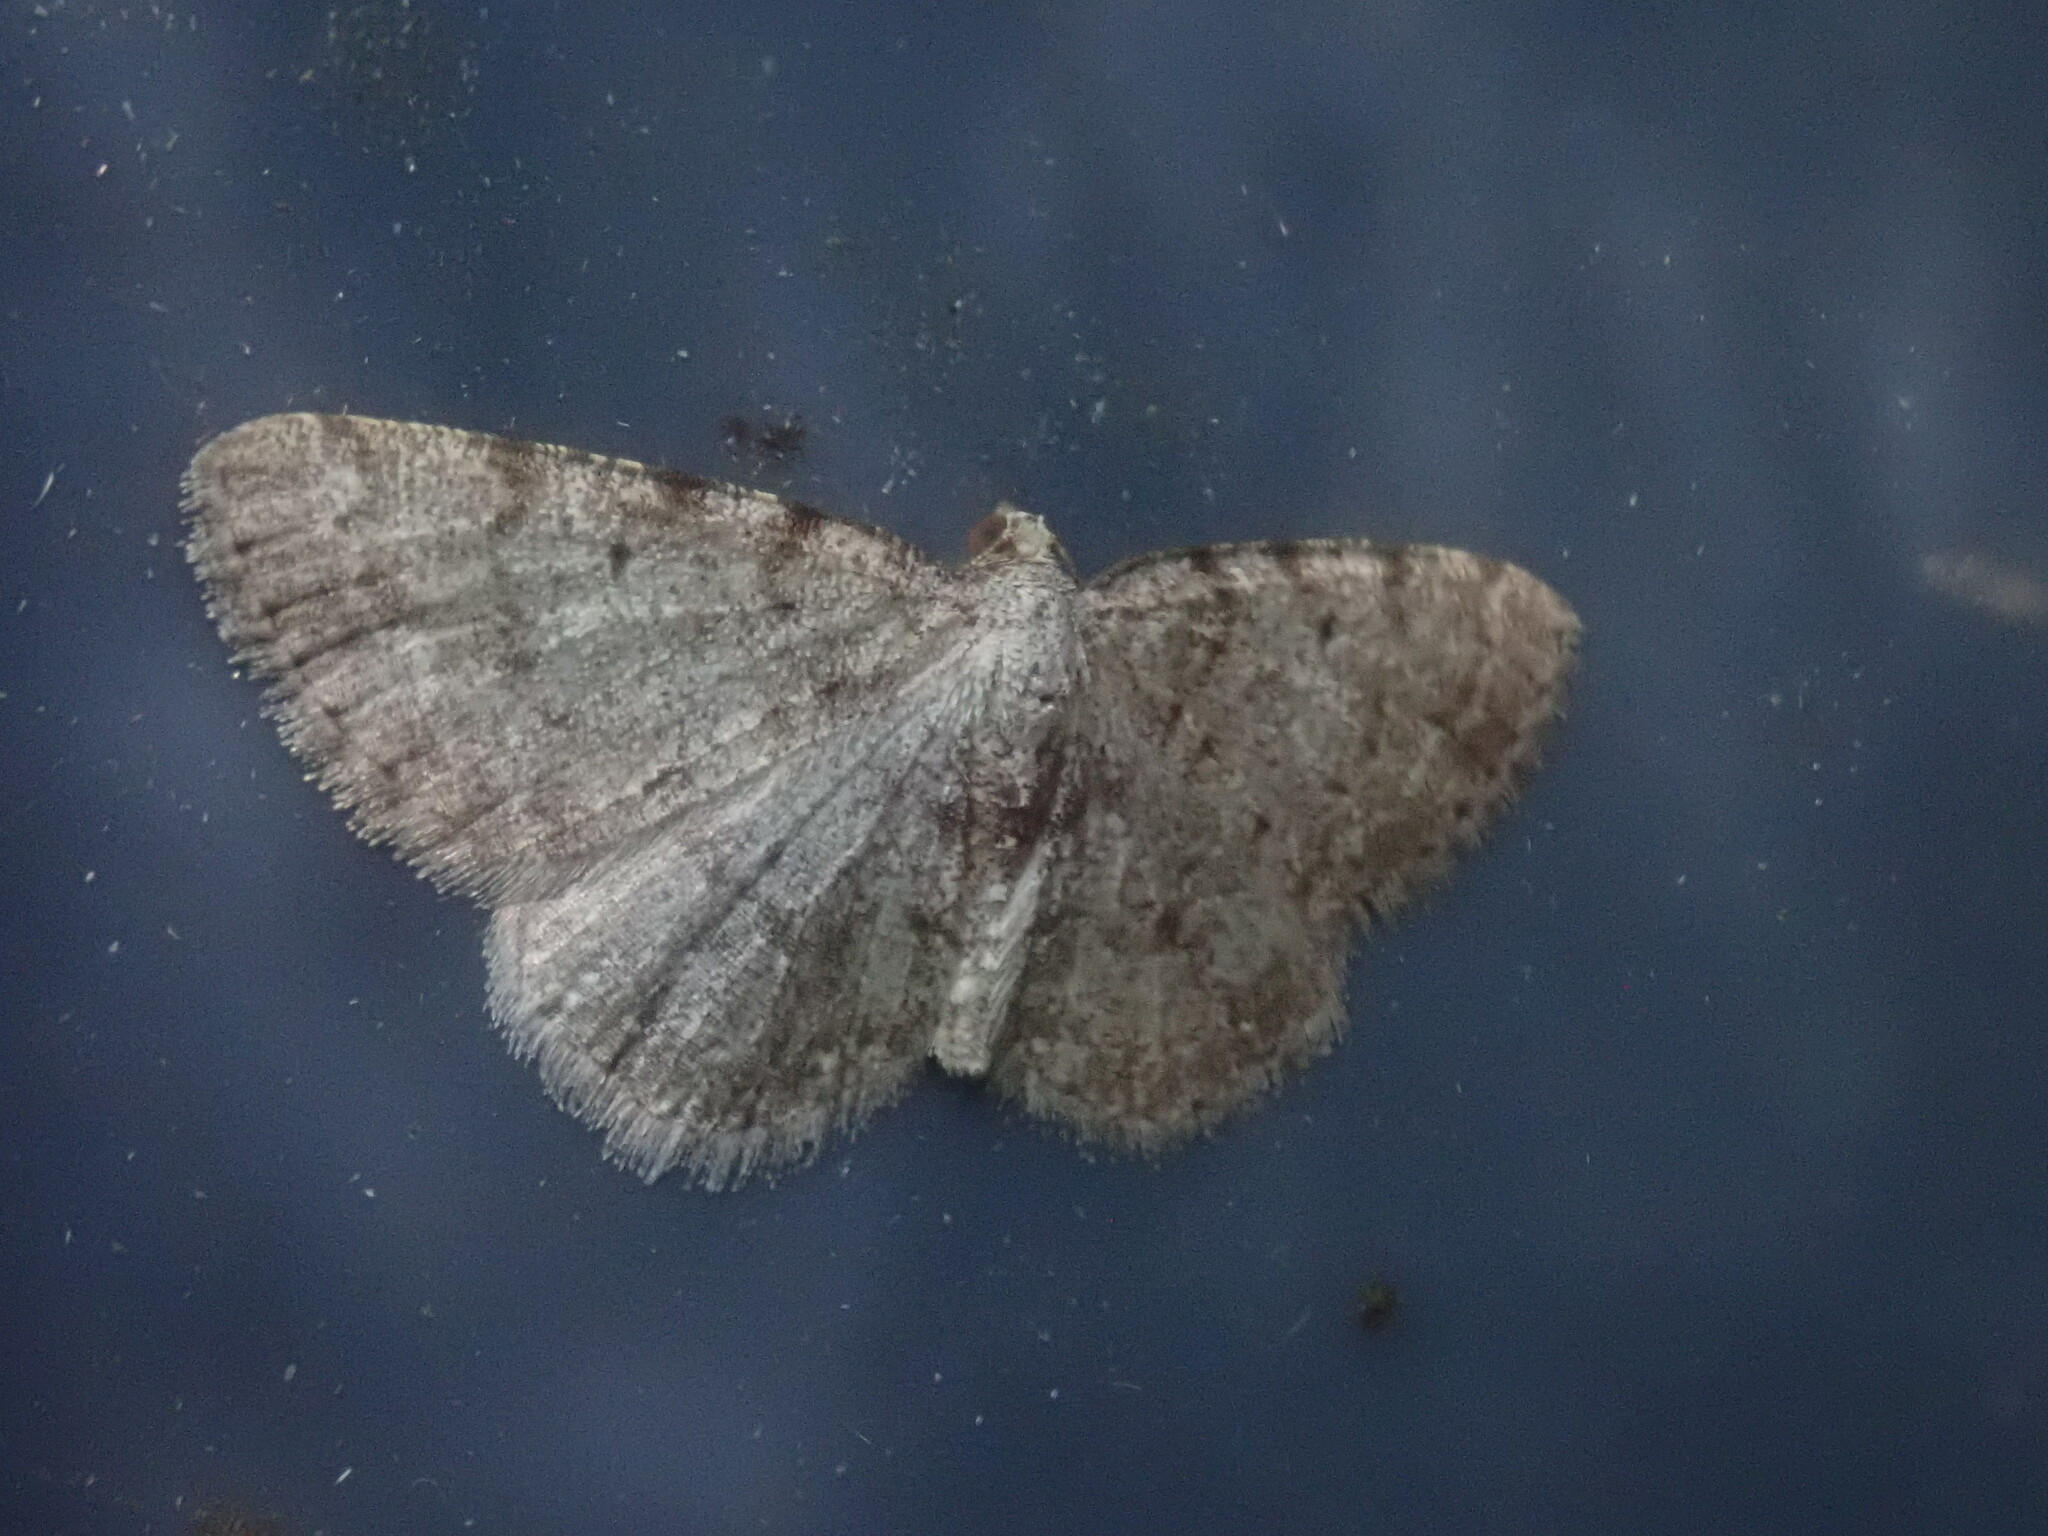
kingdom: Animalia
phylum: Arthropoda
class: Insecta
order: Lepidoptera
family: Geometridae
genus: Aethalura
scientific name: Aethalura intertexta
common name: Four-barred gray
